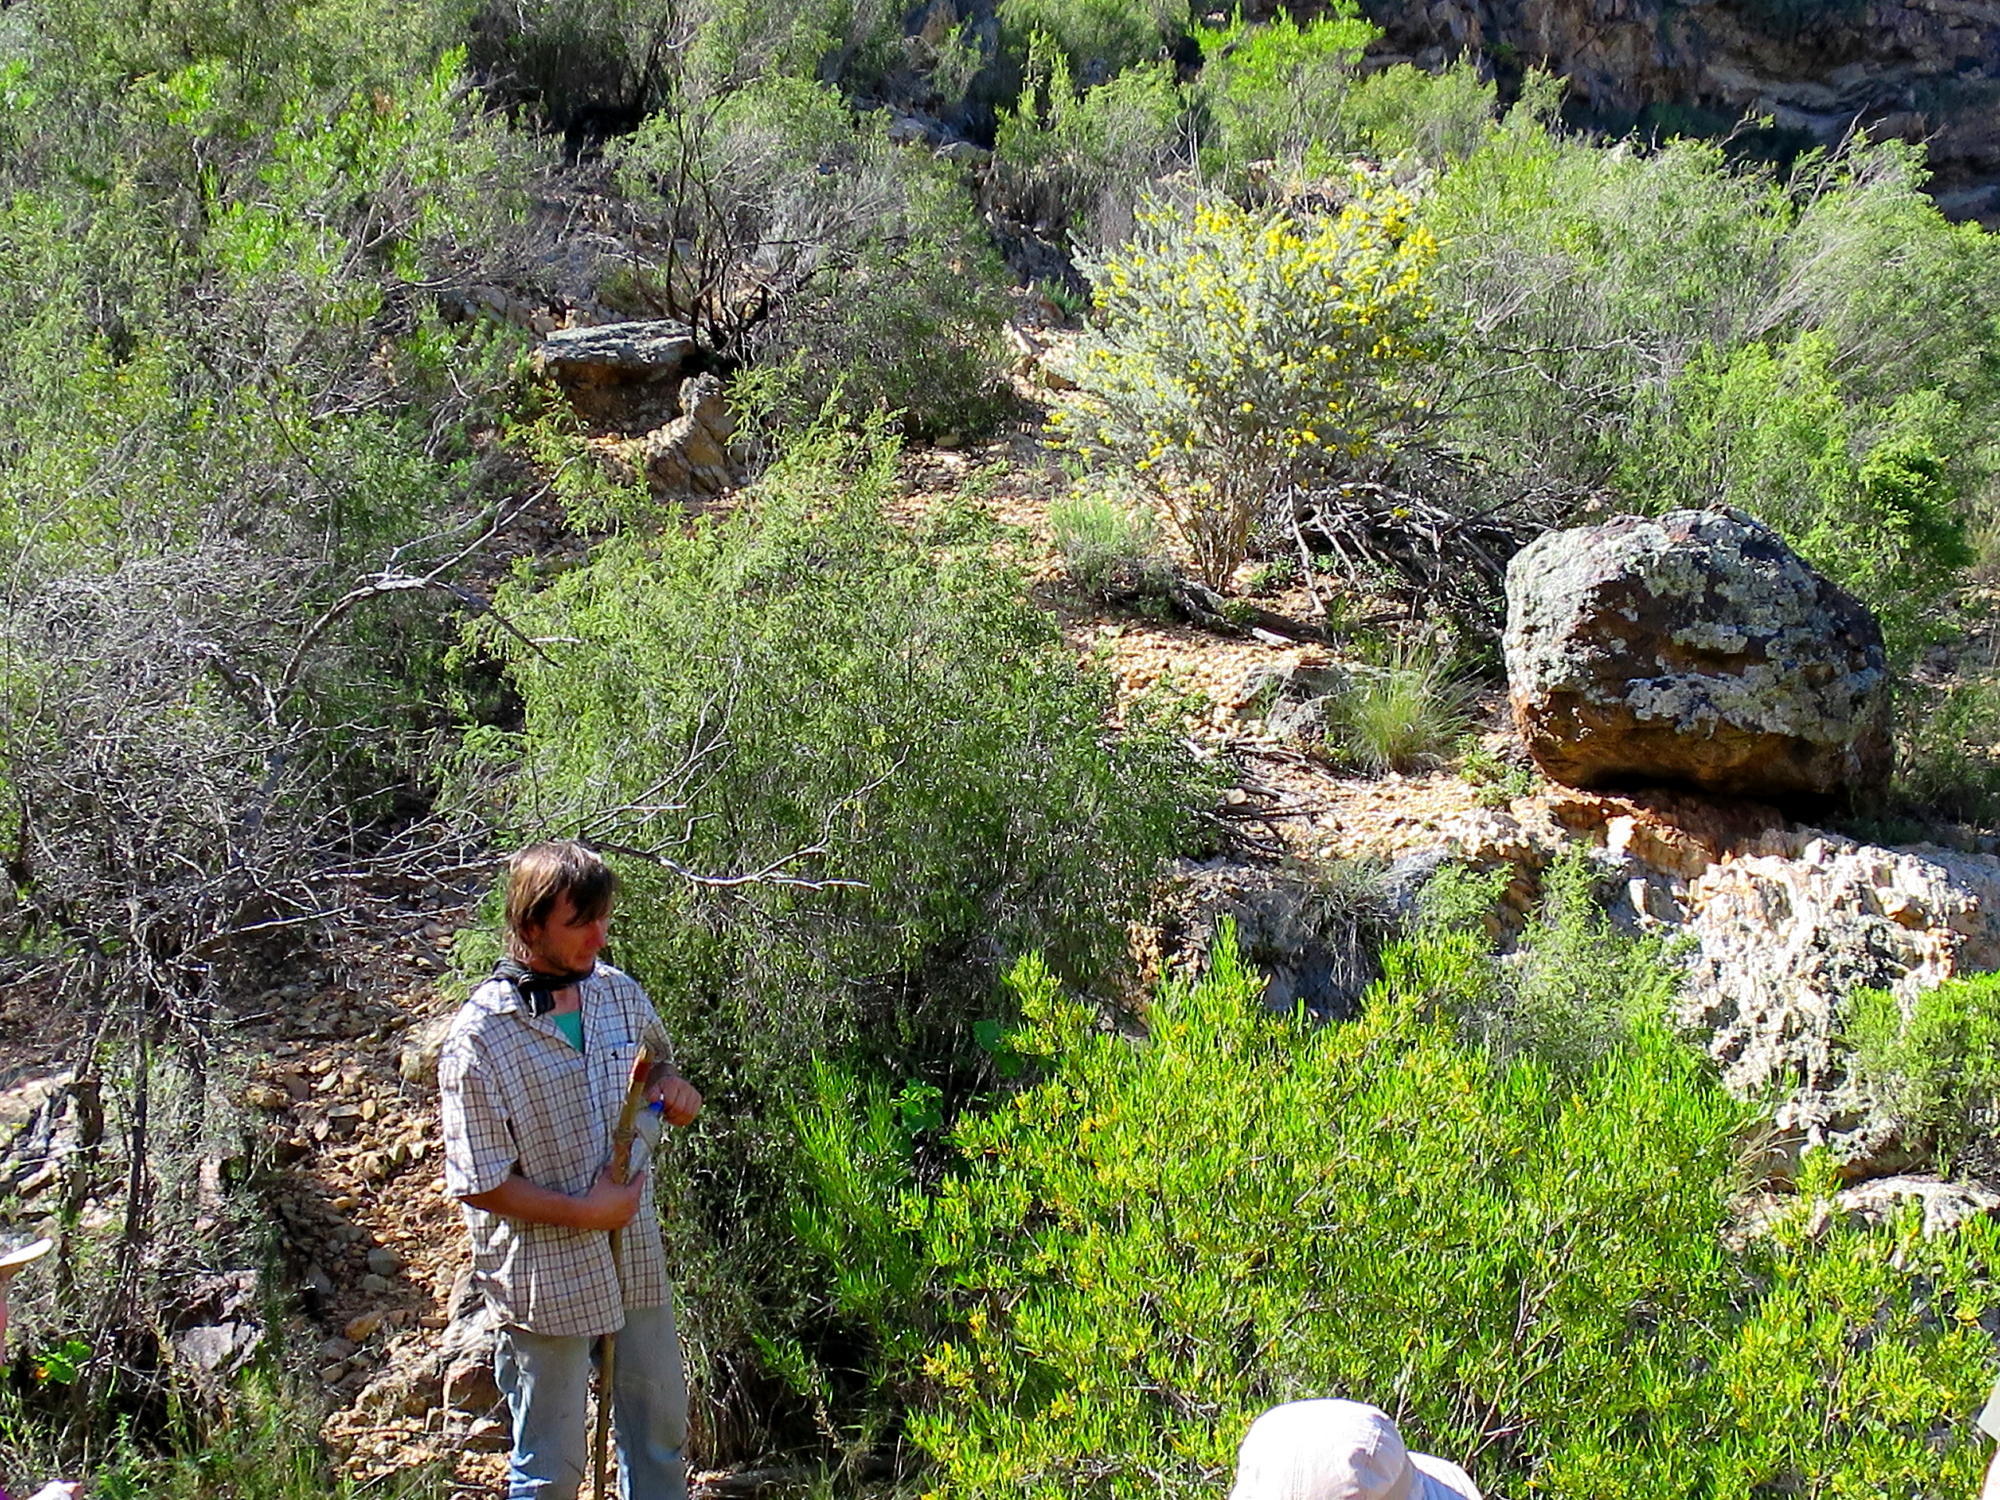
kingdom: Plantae
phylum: Tracheophyta
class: Magnoliopsida
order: Sapindales
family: Sapindaceae
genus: Dodonaea
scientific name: Dodonaea viscosa
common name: Hopbush
